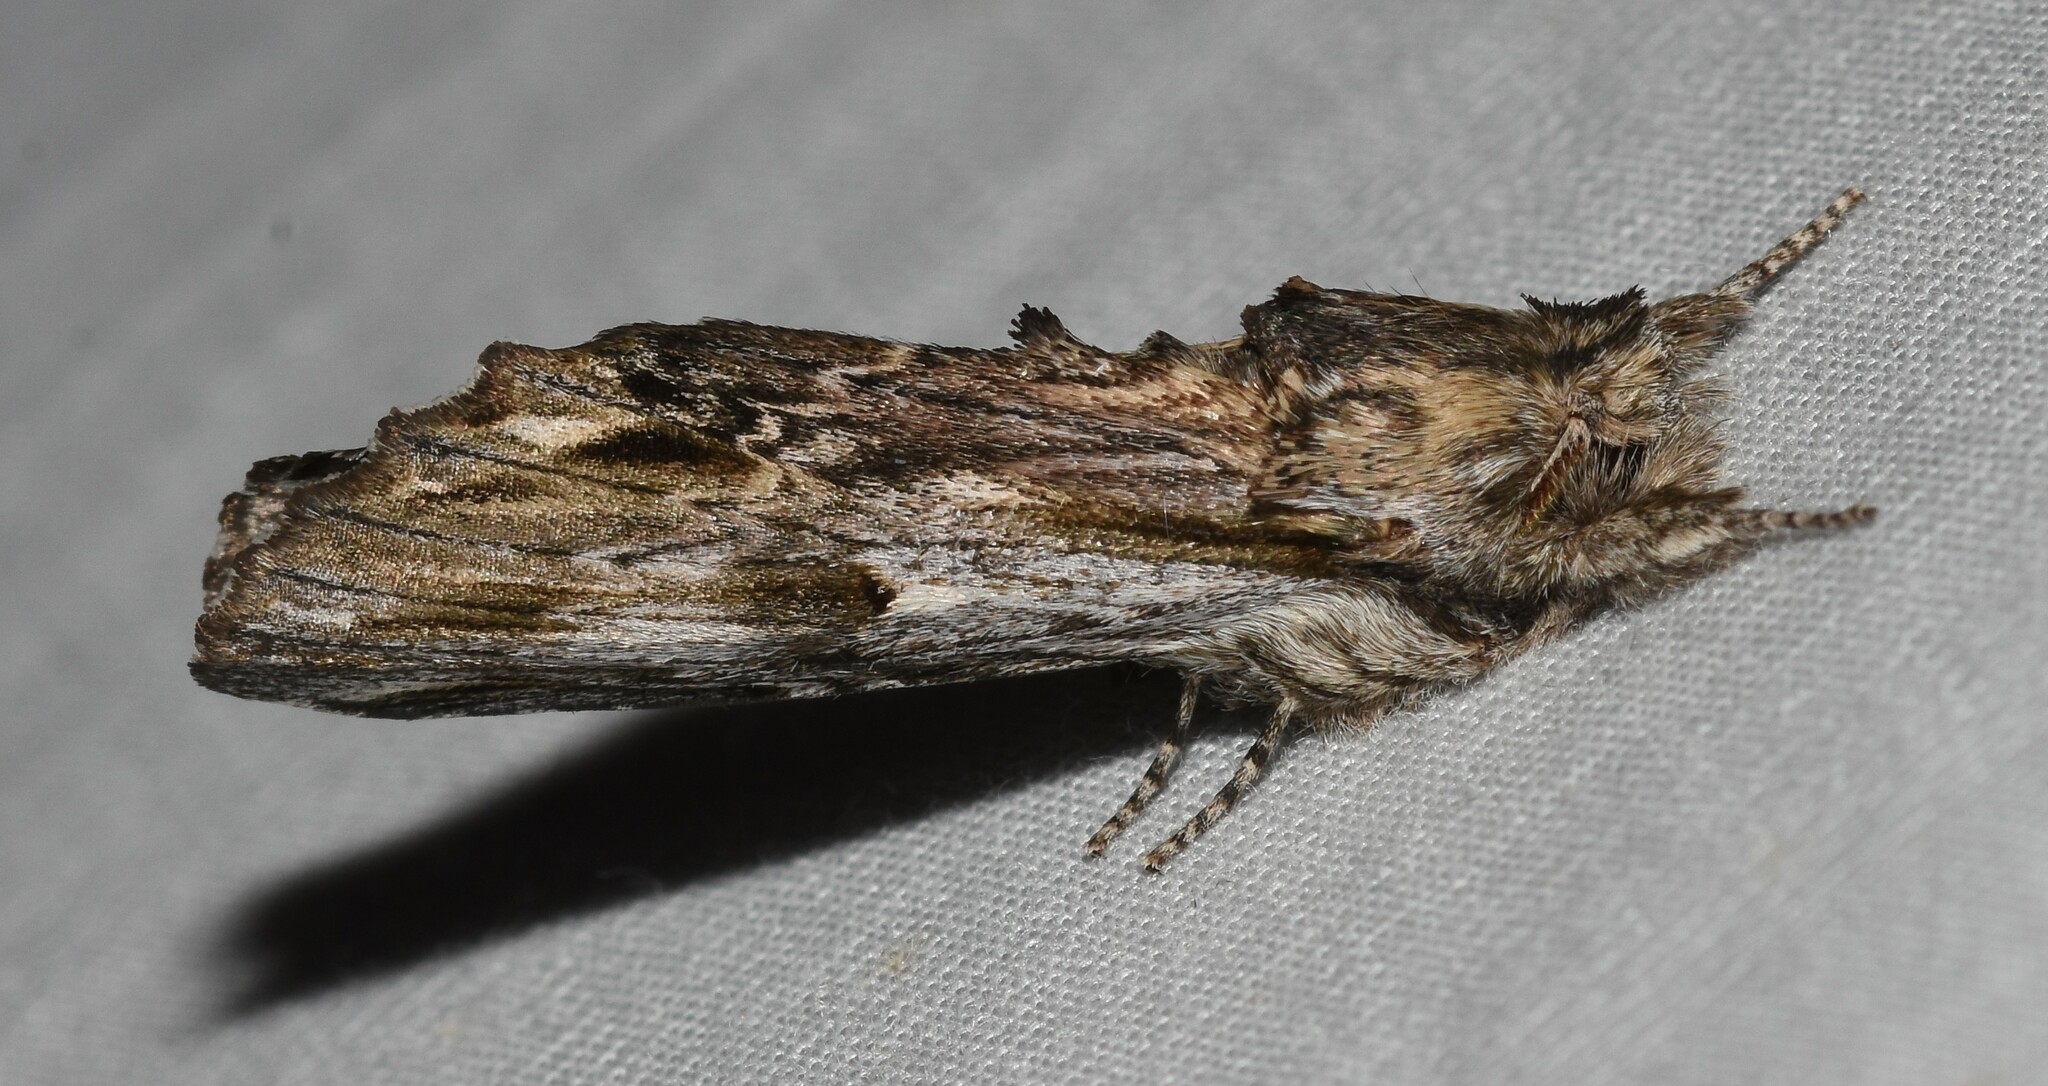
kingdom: Animalia
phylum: Arthropoda
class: Insecta
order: Lepidoptera
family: Notodontidae
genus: Oligocentria
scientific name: Oligocentria Ianassa lignicolor
